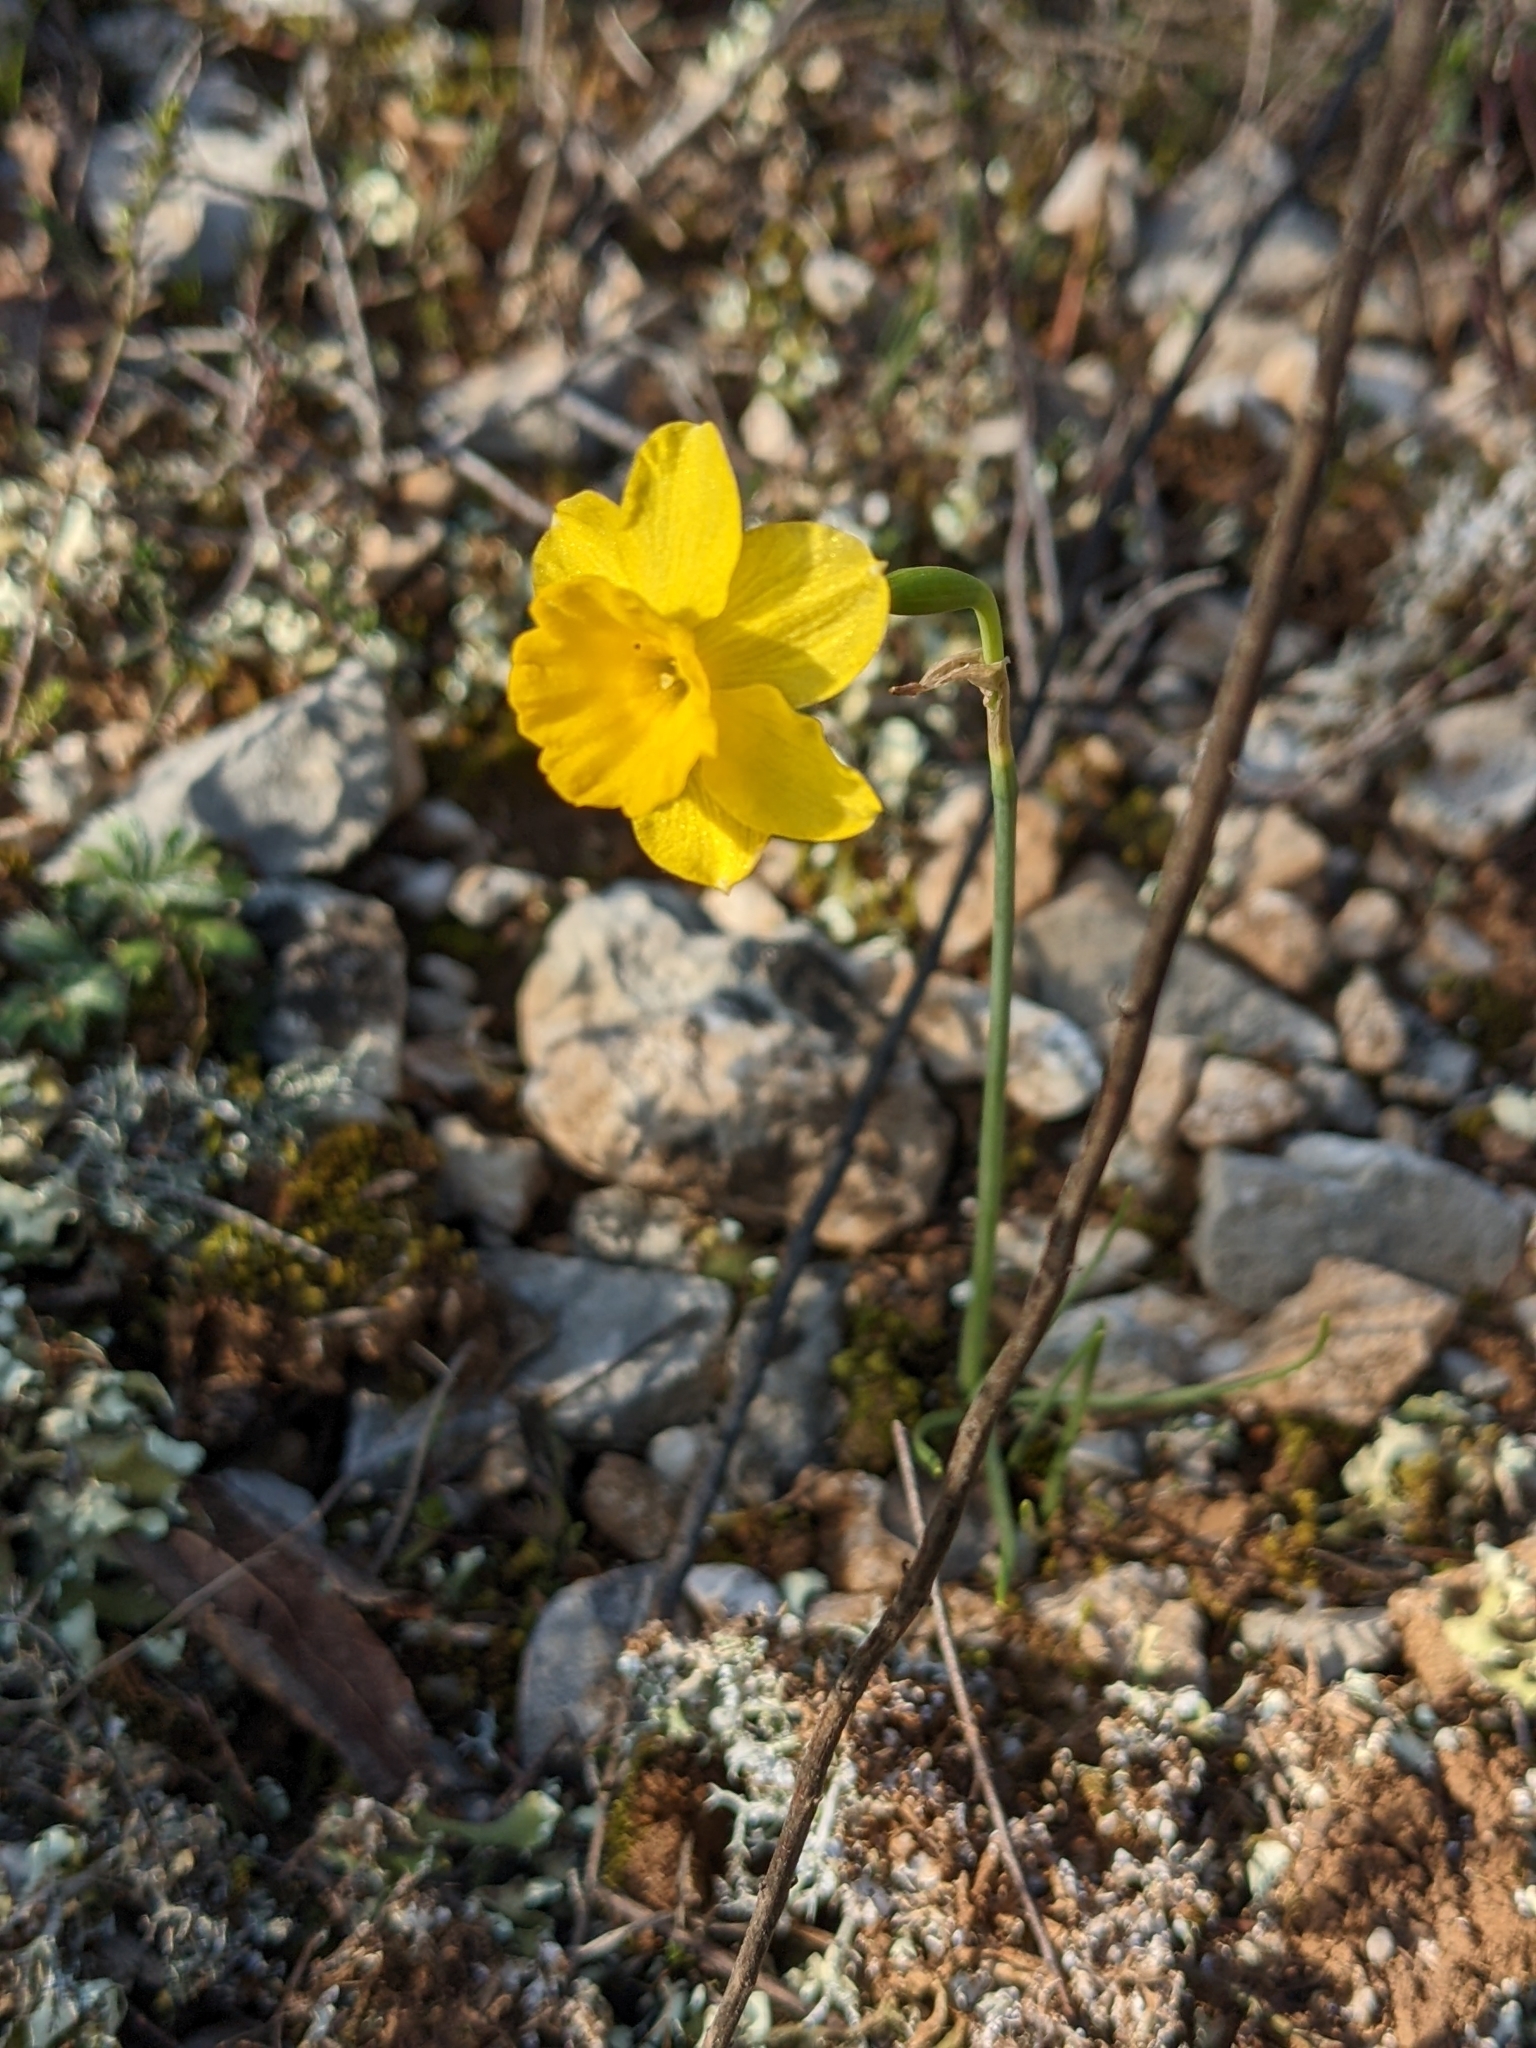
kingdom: Plantae
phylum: Tracheophyta
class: Liliopsida
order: Asparagales
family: Amaryllidaceae
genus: Narcissus
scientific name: Narcissus assoanus
